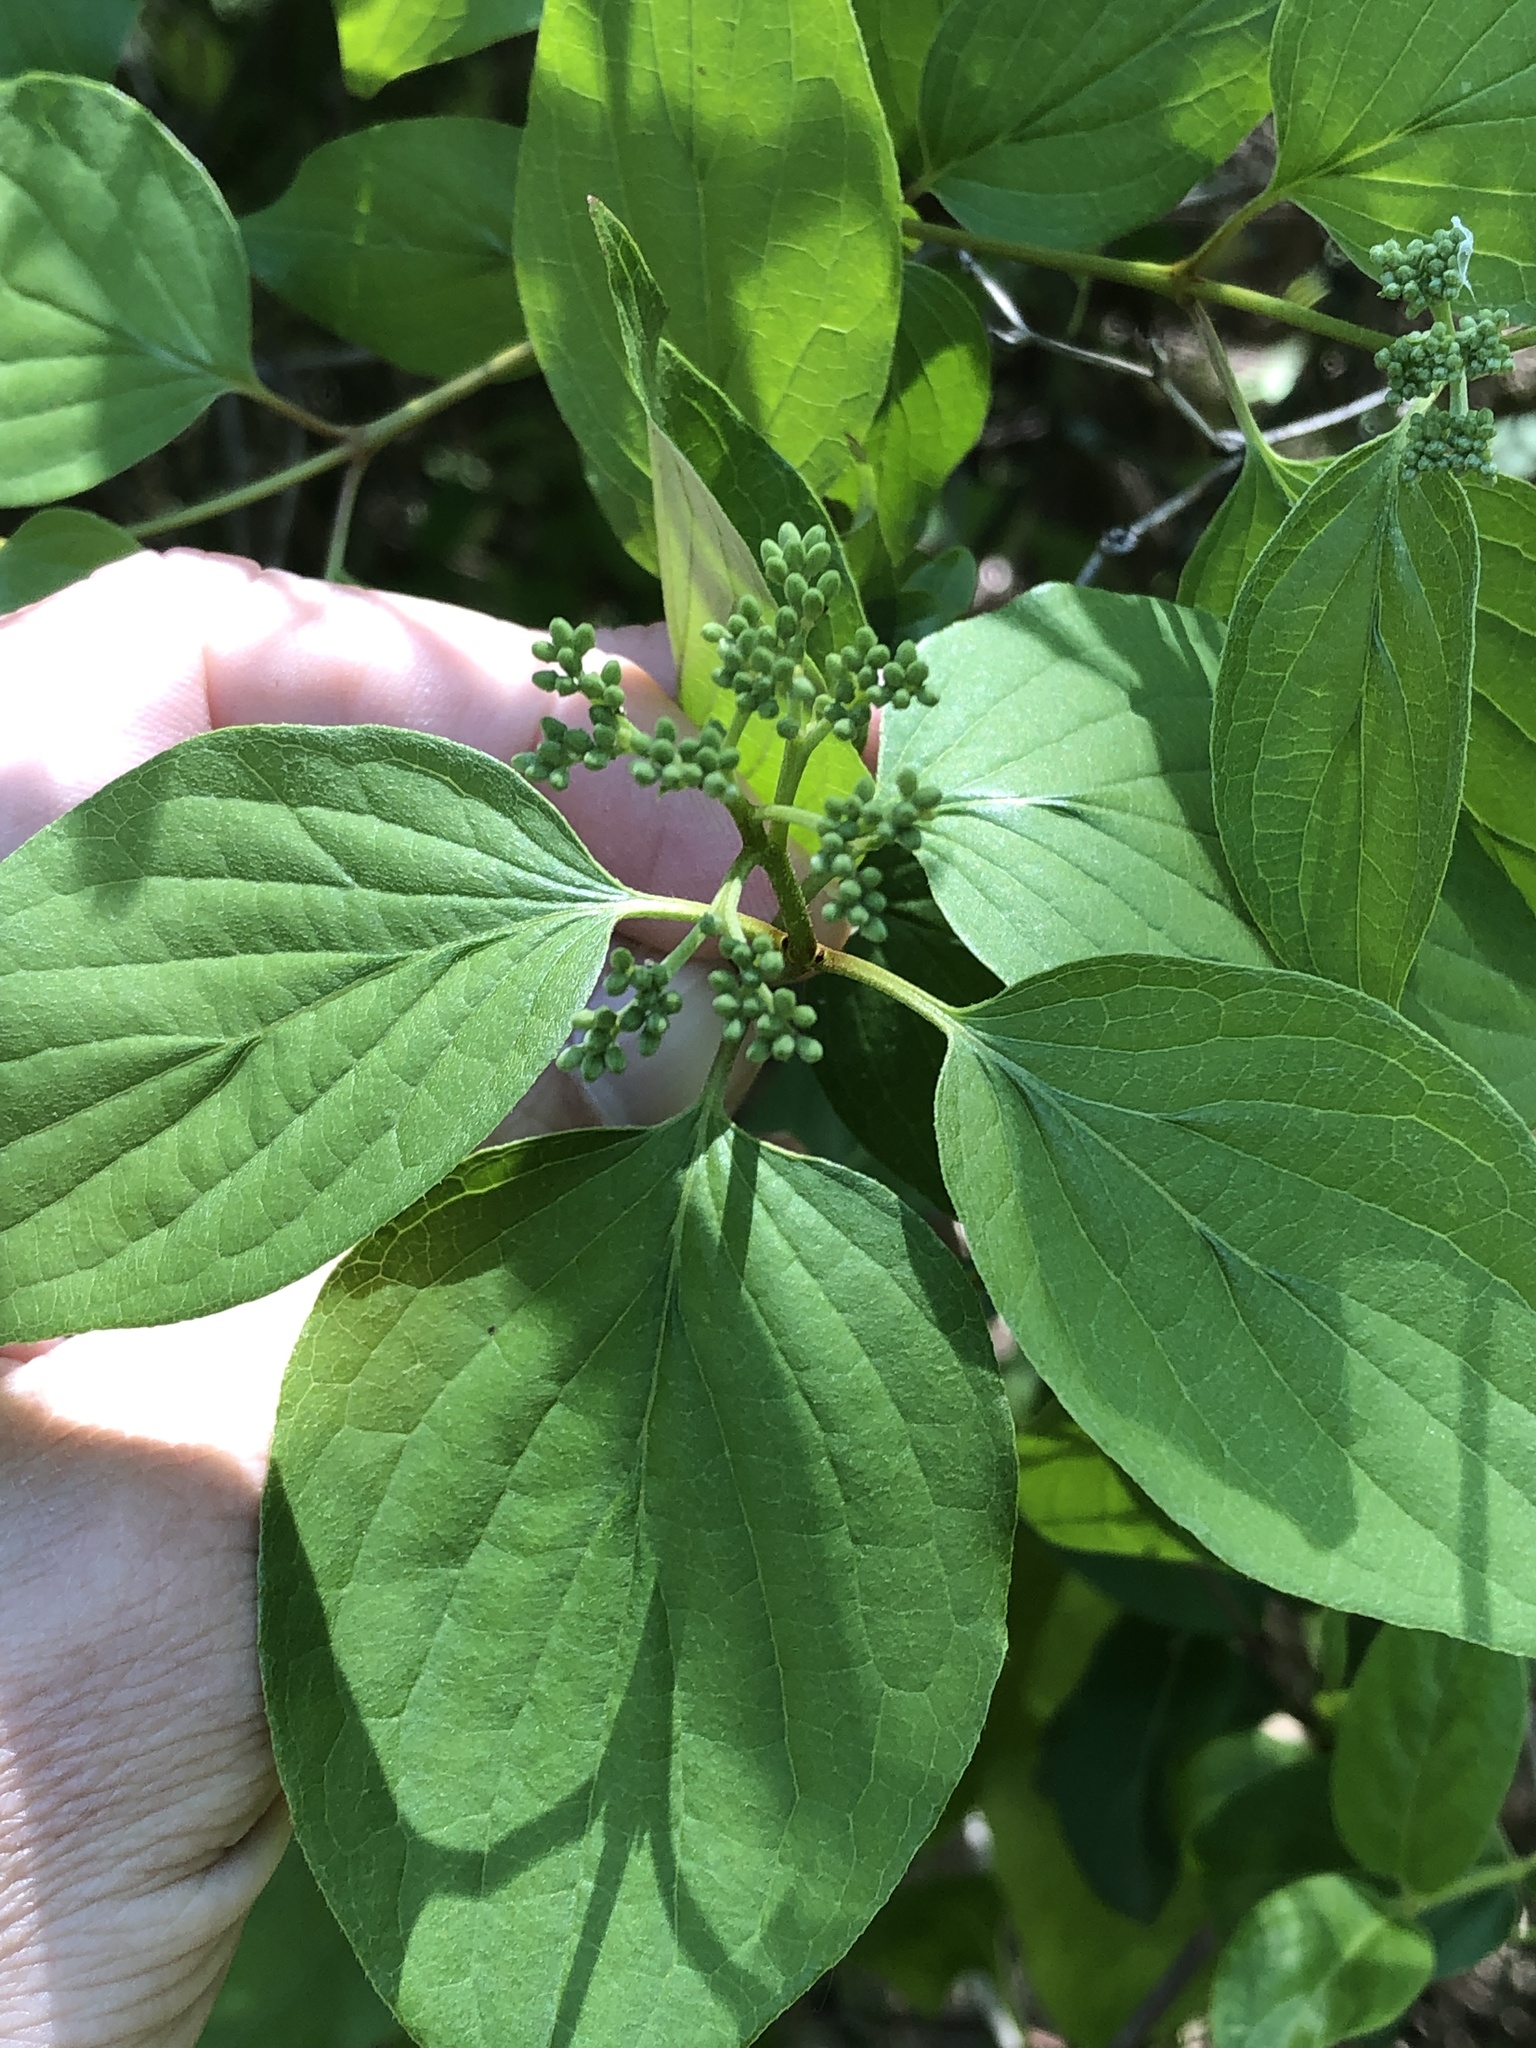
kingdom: Plantae
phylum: Tracheophyta
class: Magnoliopsida
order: Cornales
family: Cornaceae
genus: Cornus
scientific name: Cornus drummondii
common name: Rough-leaf dogwood
